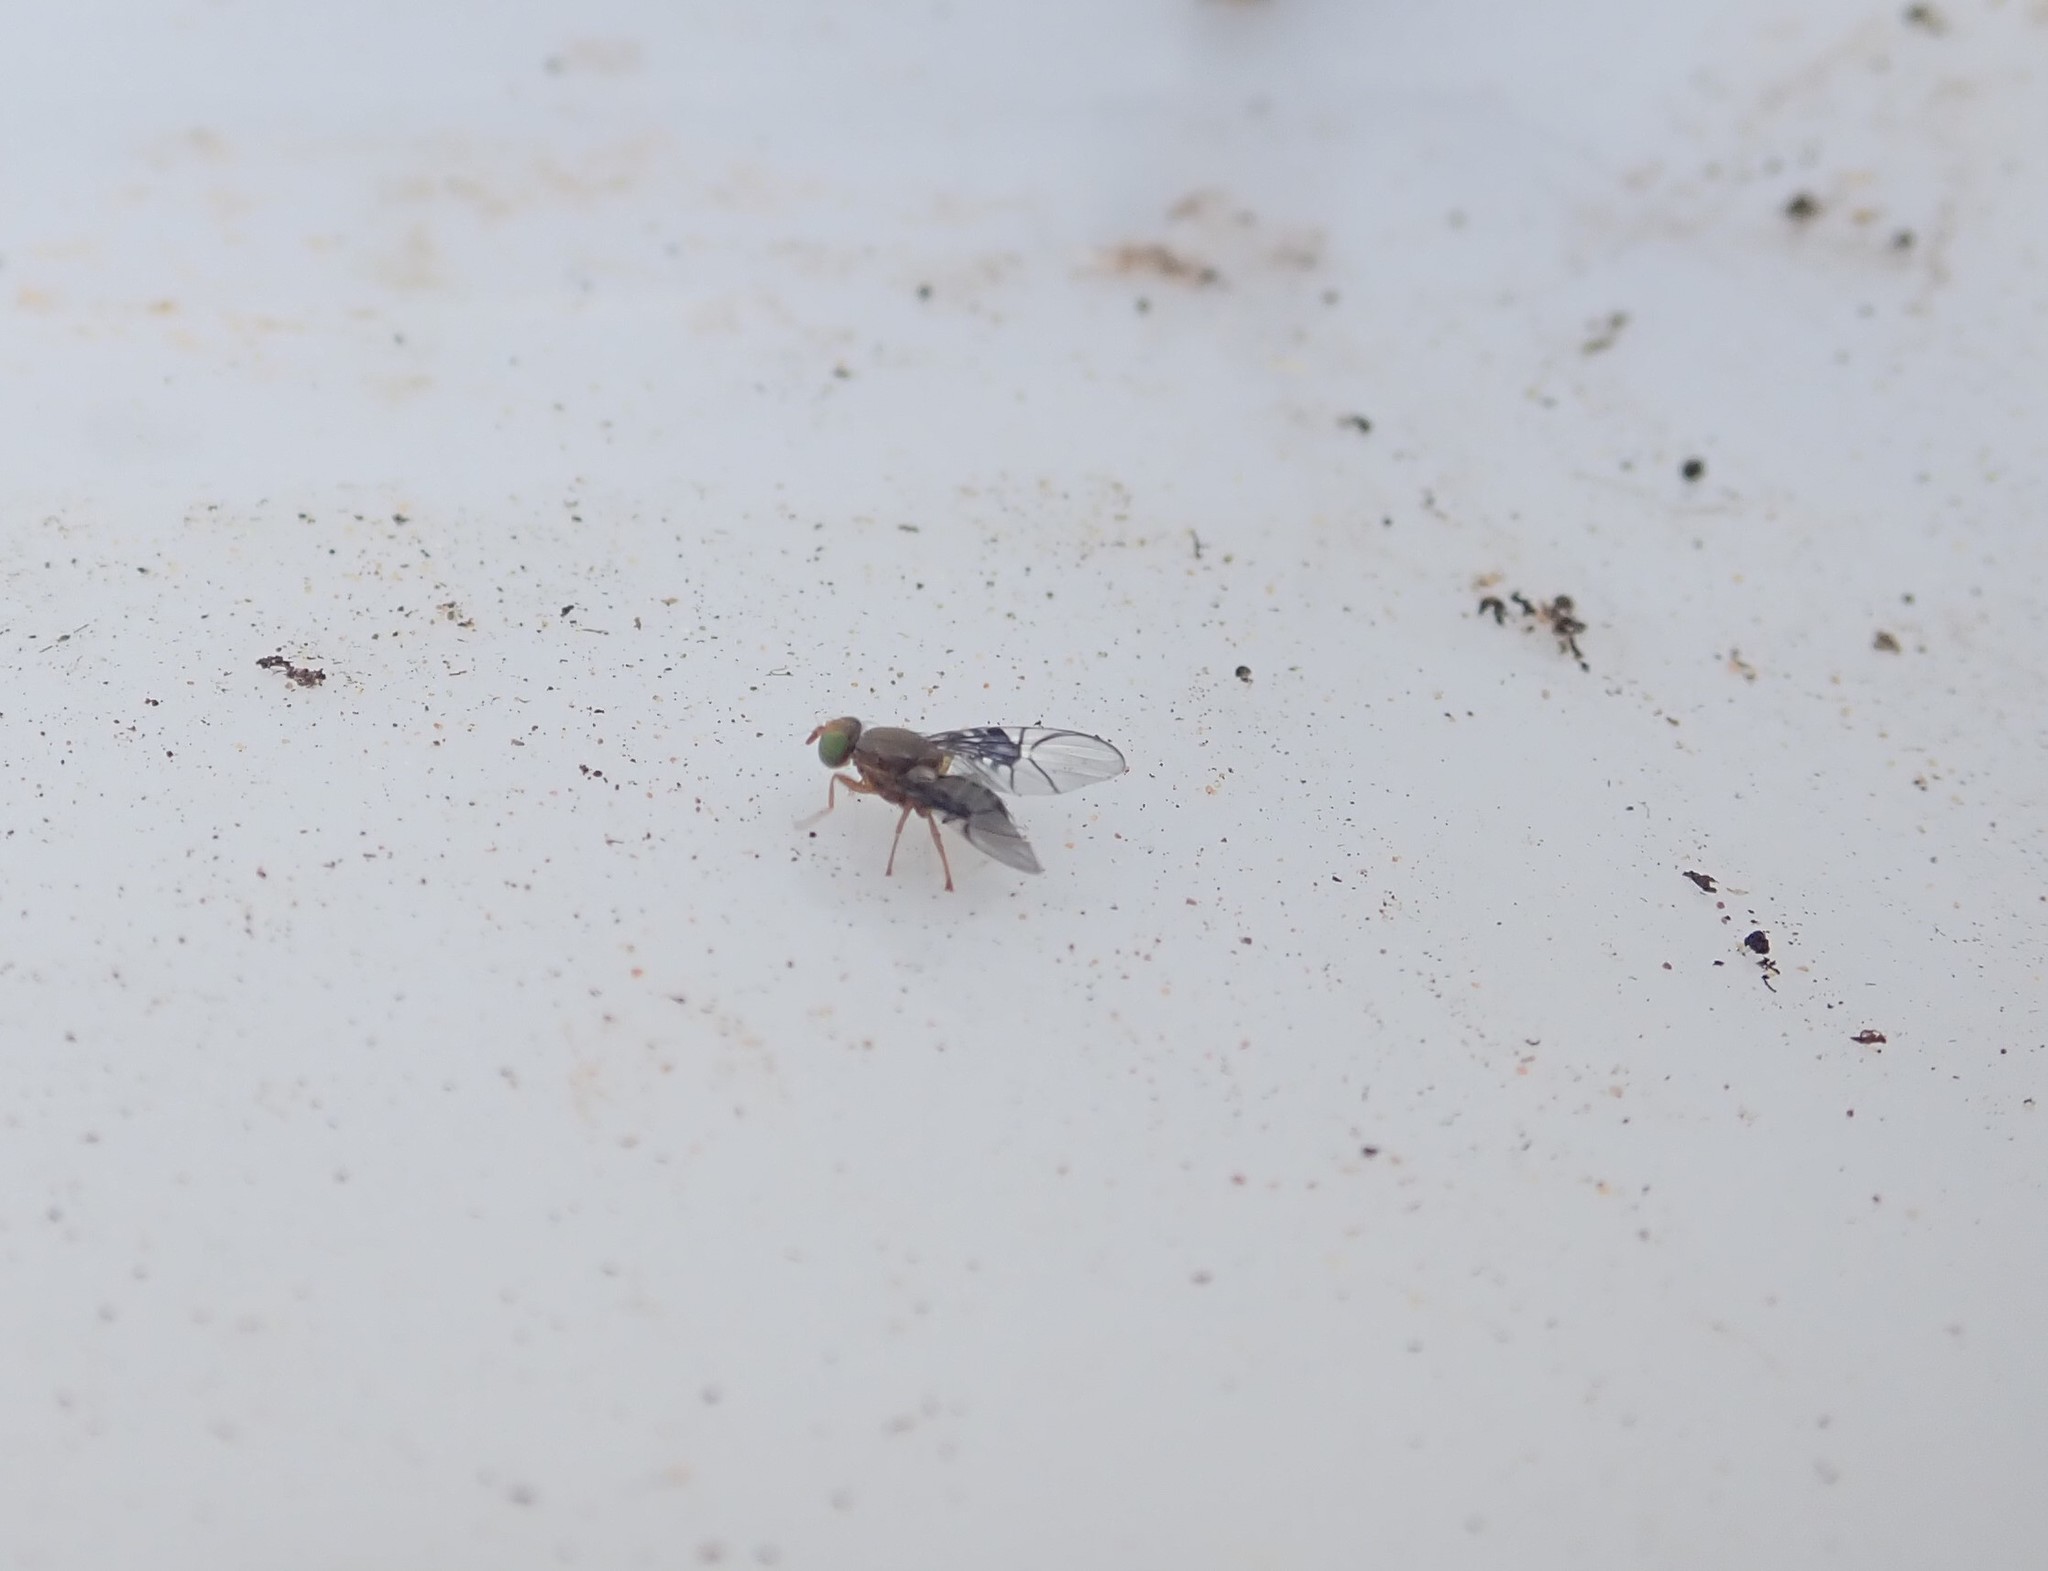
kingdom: Animalia
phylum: Arthropoda
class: Insecta
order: Diptera
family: Tephritidae
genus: Anomoia
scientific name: Anomoia purmunda
